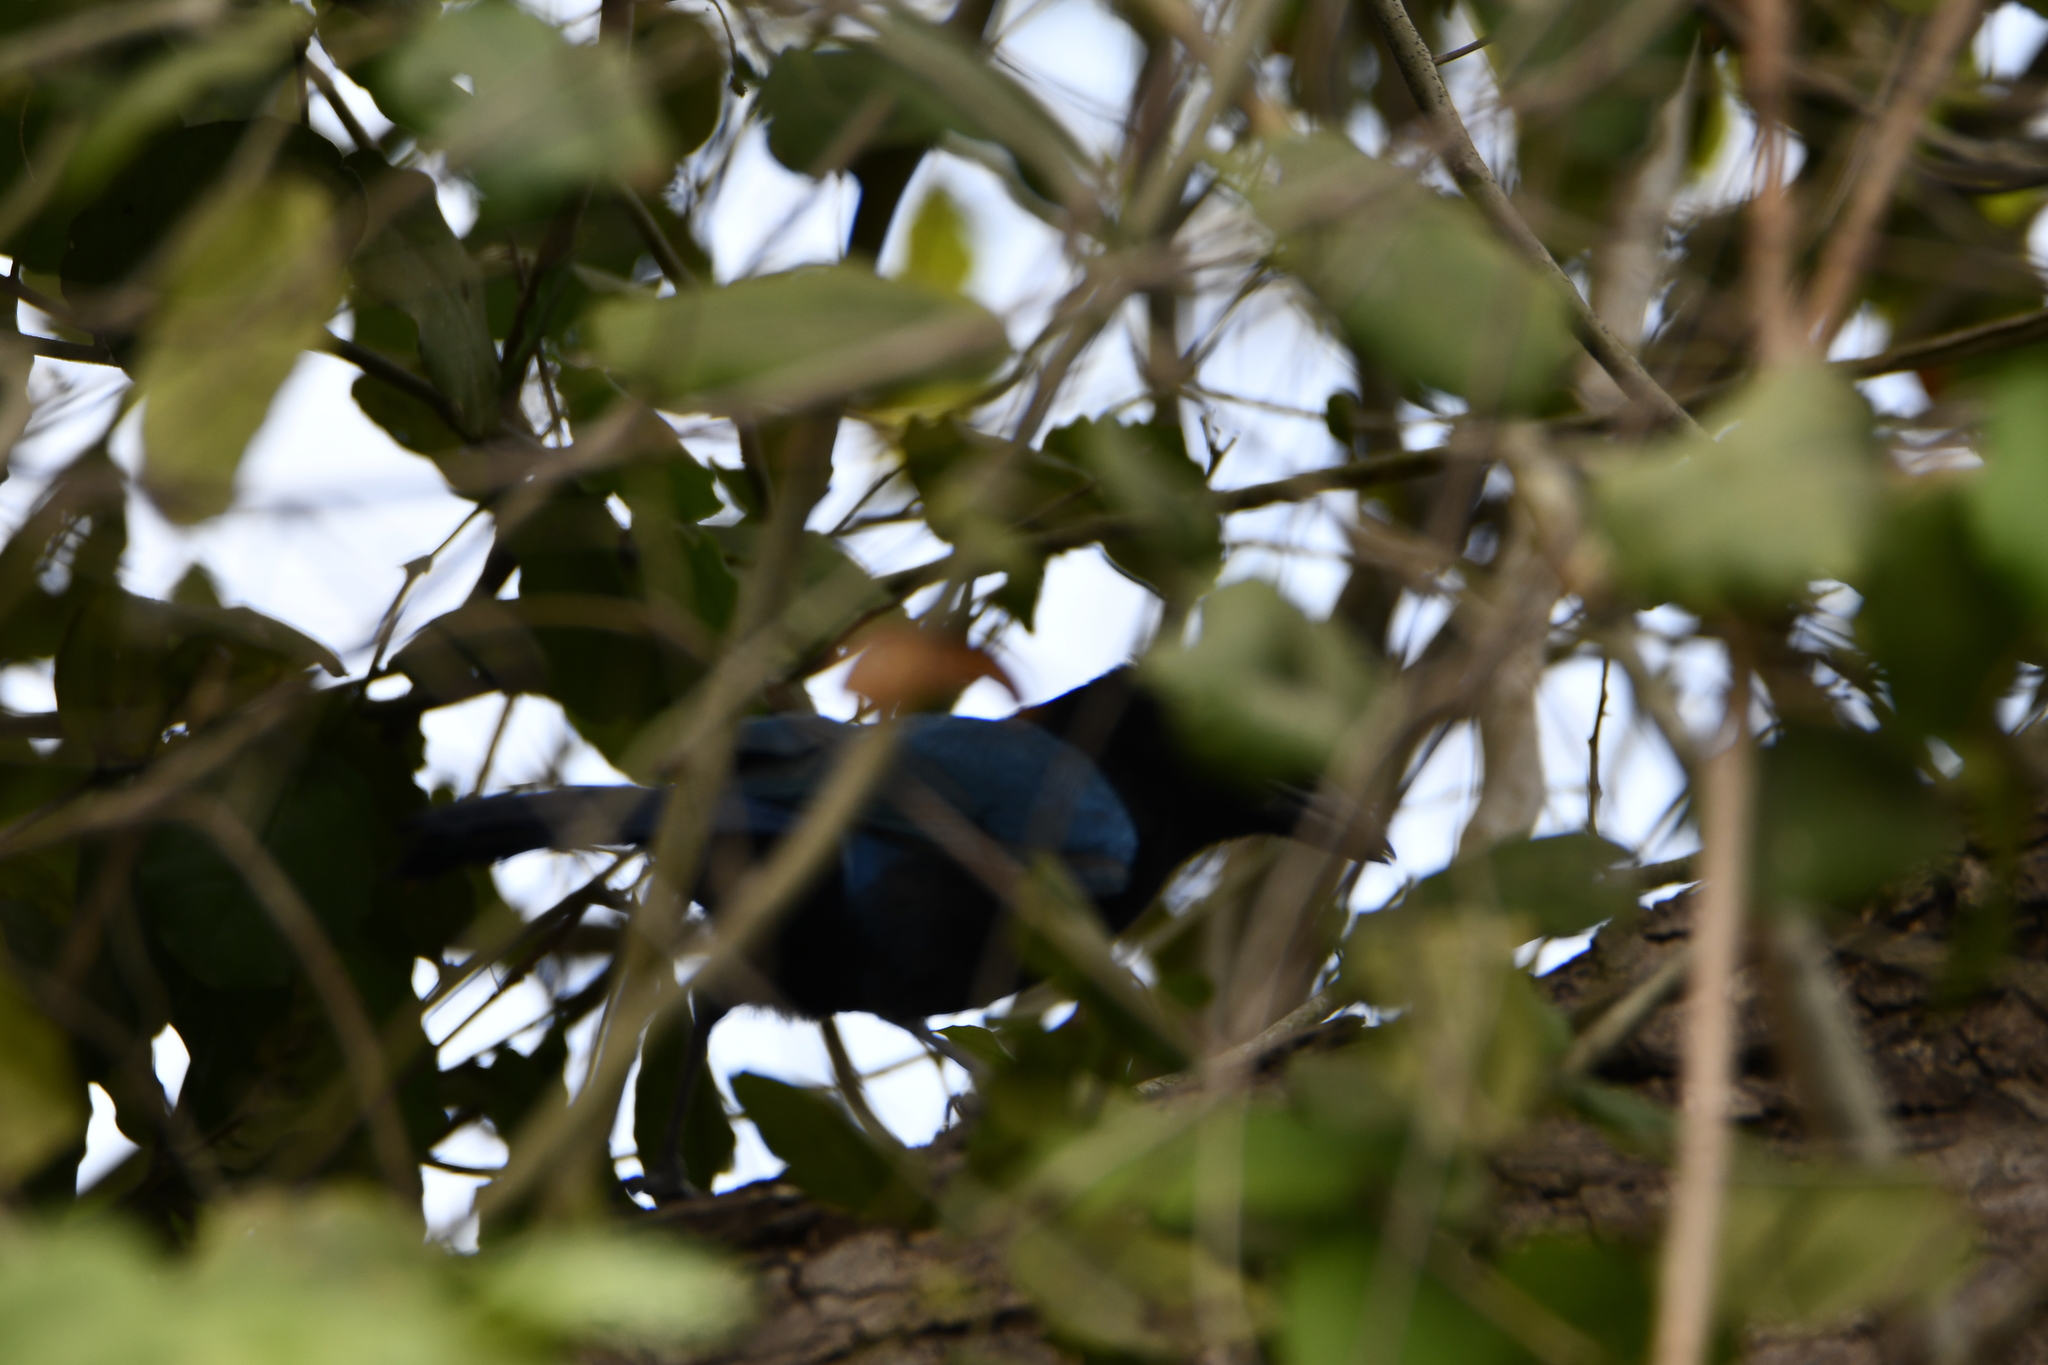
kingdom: Animalia
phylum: Chordata
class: Aves
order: Passeriformes
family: Corvidae
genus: Cyanocorax
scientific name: Cyanocorax sanblasianus
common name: San blas jay
